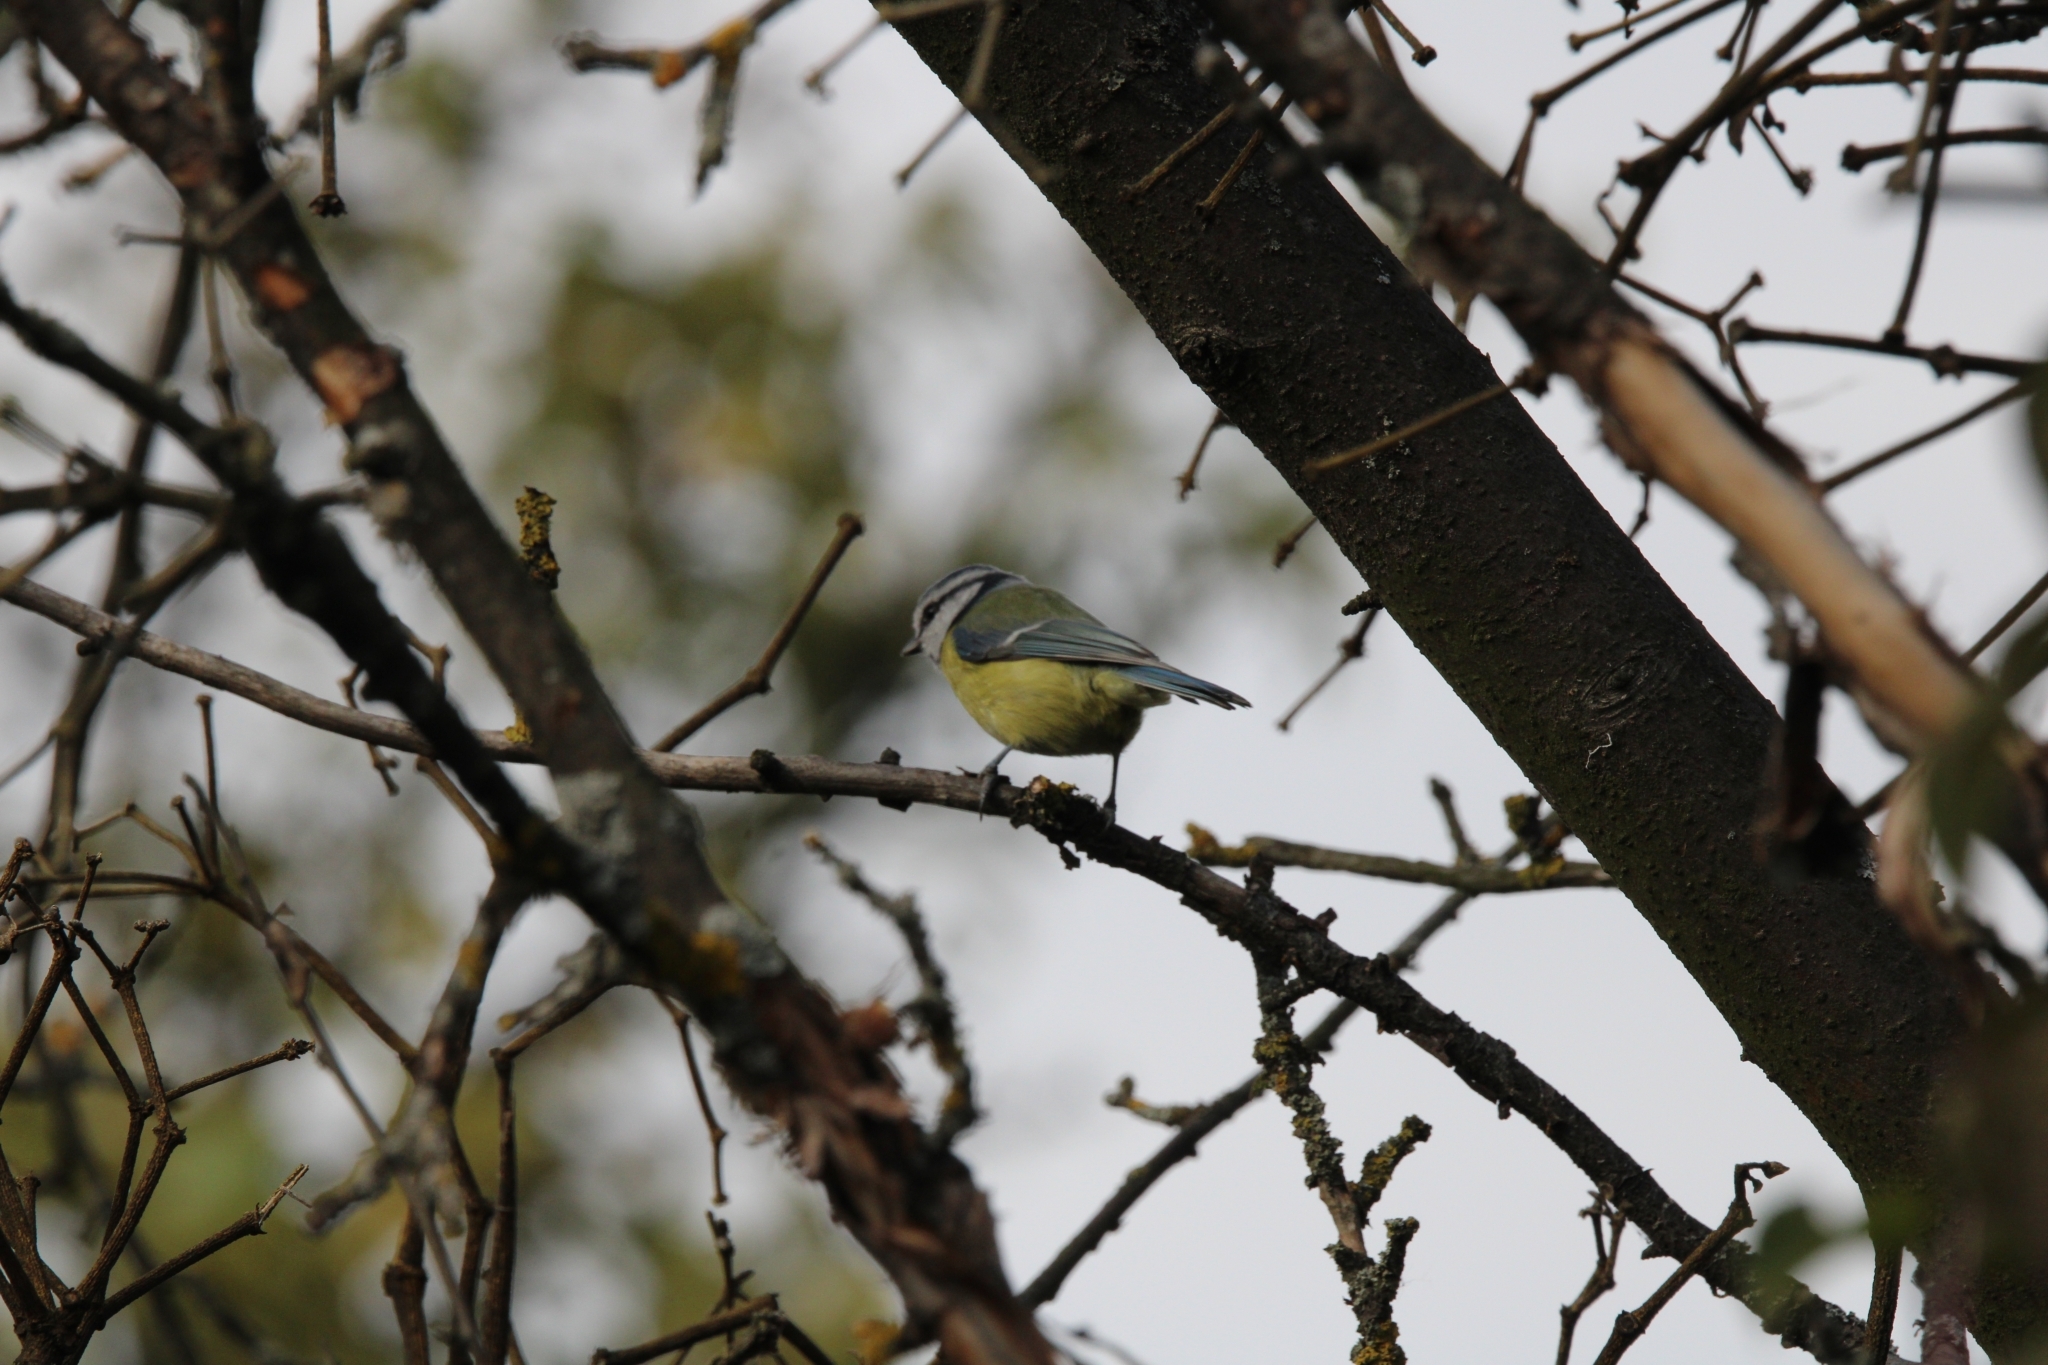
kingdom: Animalia
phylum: Chordata
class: Aves
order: Passeriformes
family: Paridae
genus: Cyanistes
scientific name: Cyanistes caeruleus
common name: Eurasian blue tit
